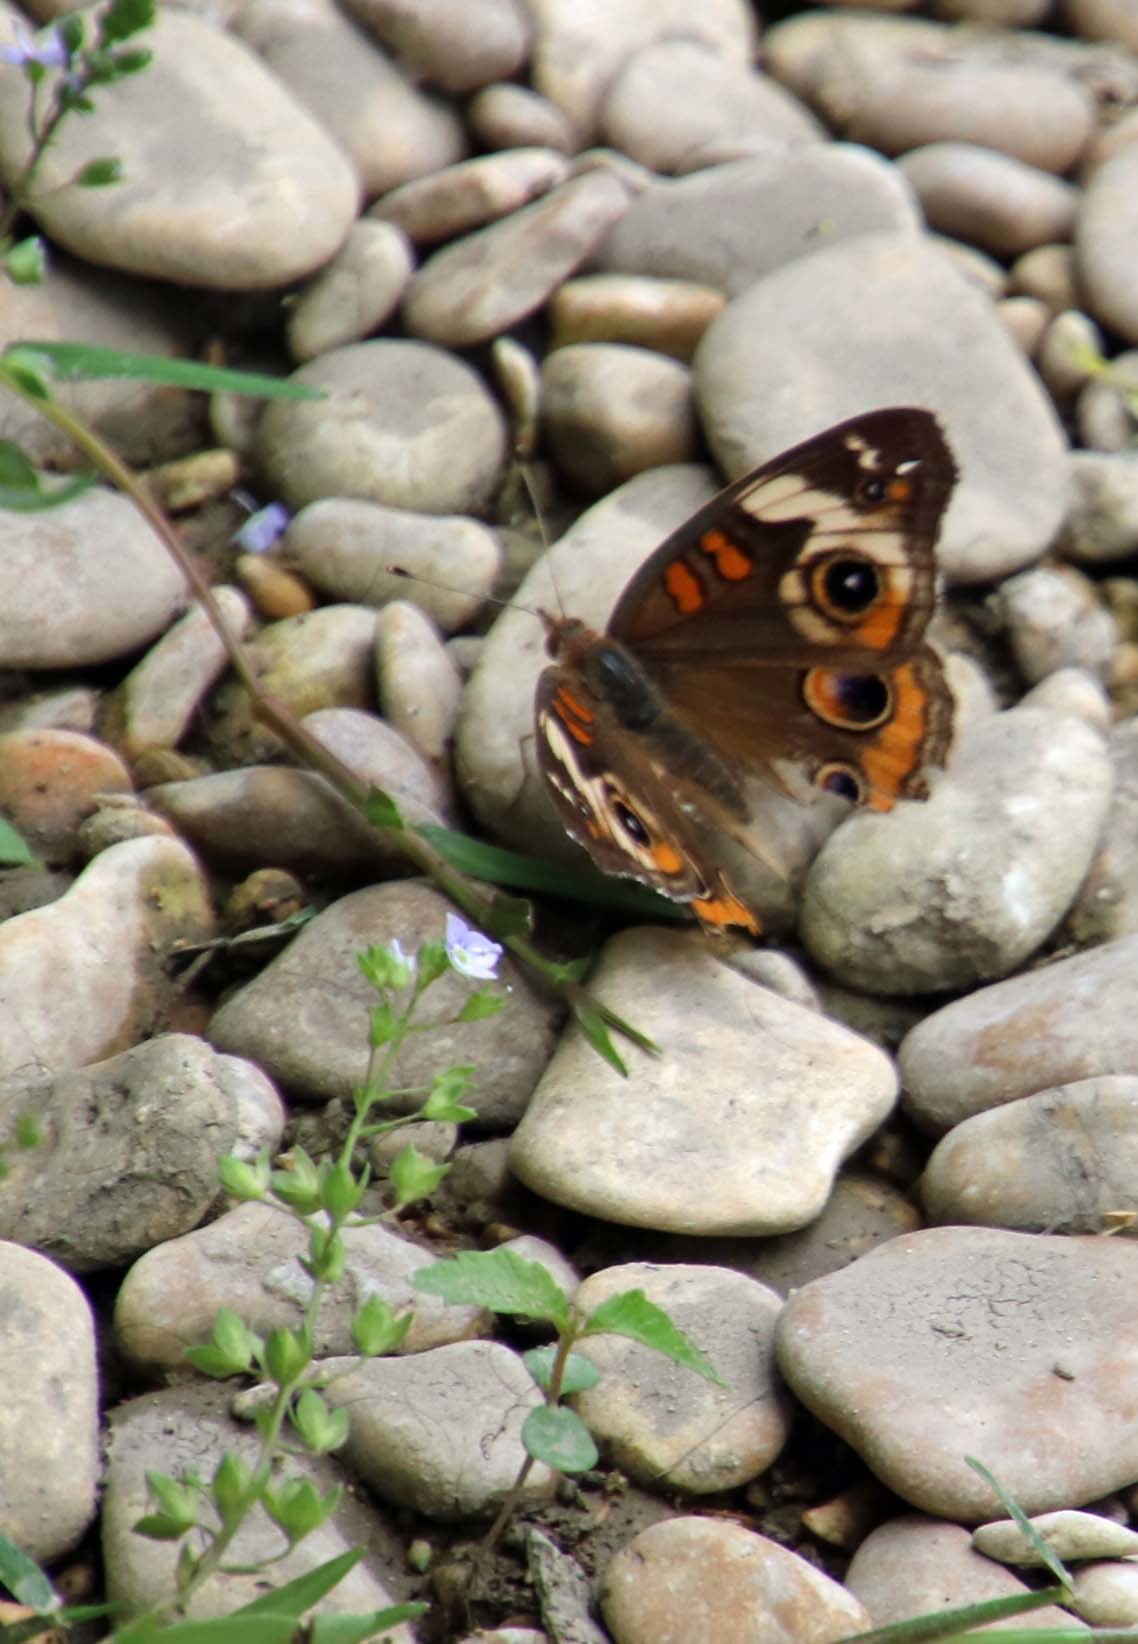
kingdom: Animalia
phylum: Arthropoda
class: Insecta
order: Lepidoptera
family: Nymphalidae
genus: Junonia
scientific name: Junonia coenia
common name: Common buckeye
